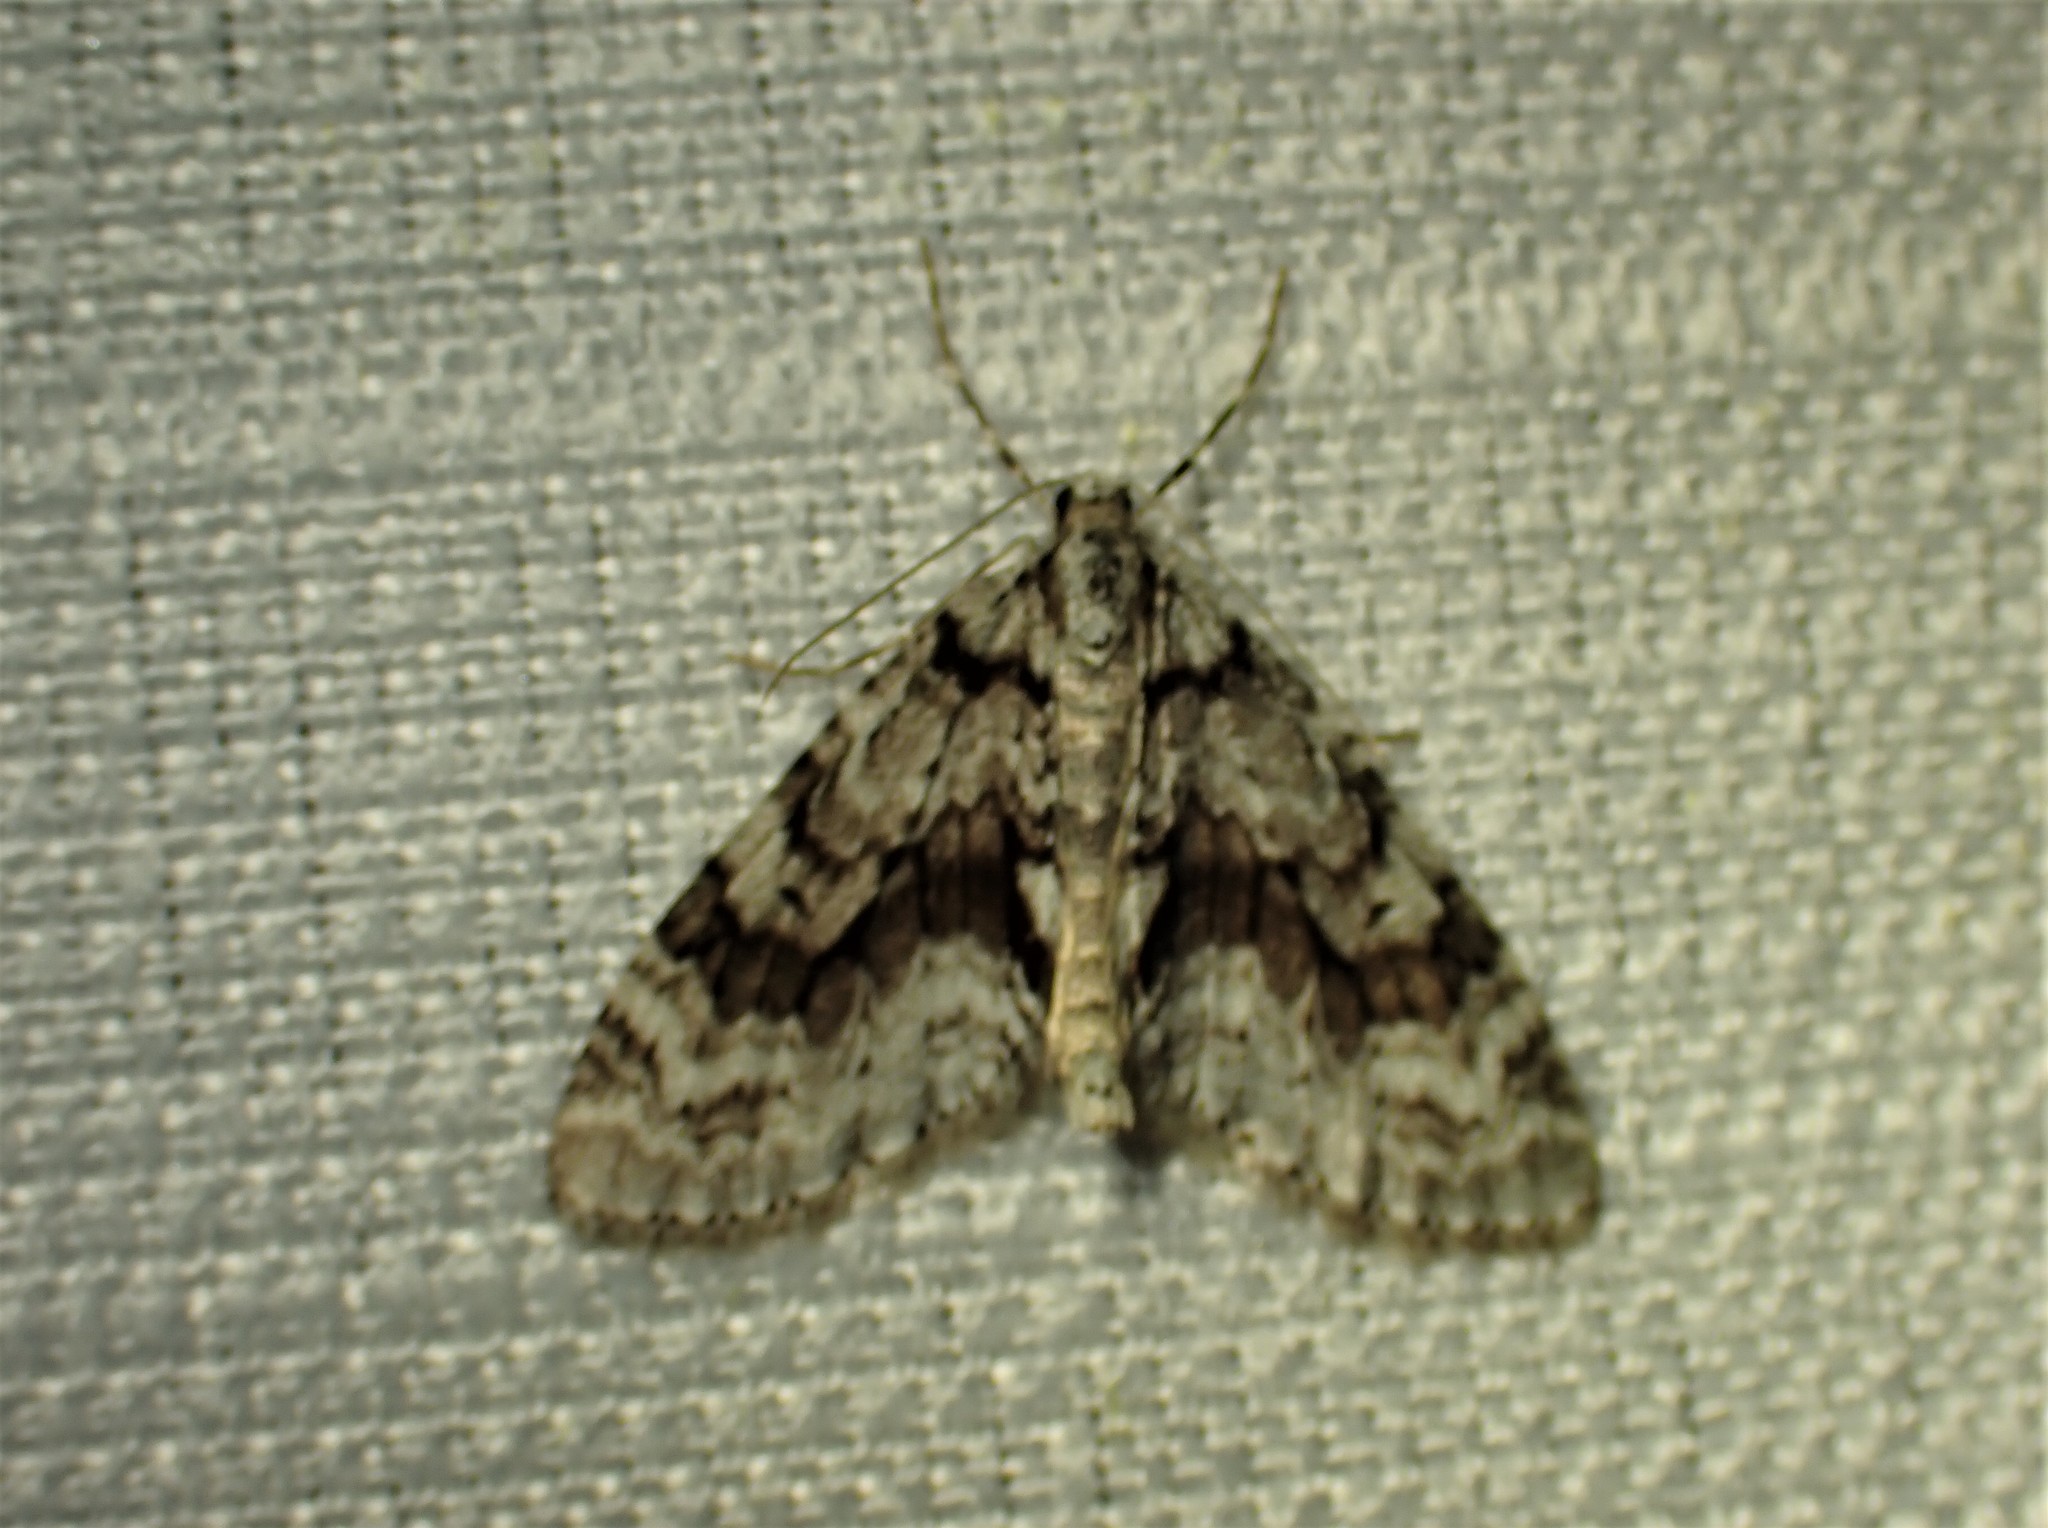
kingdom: Animalia
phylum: Arthropoda
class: Insecta
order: Lepidoptera
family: Geometridae
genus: Cladara
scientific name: Cladara limitaria
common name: Mottled gray carpet
